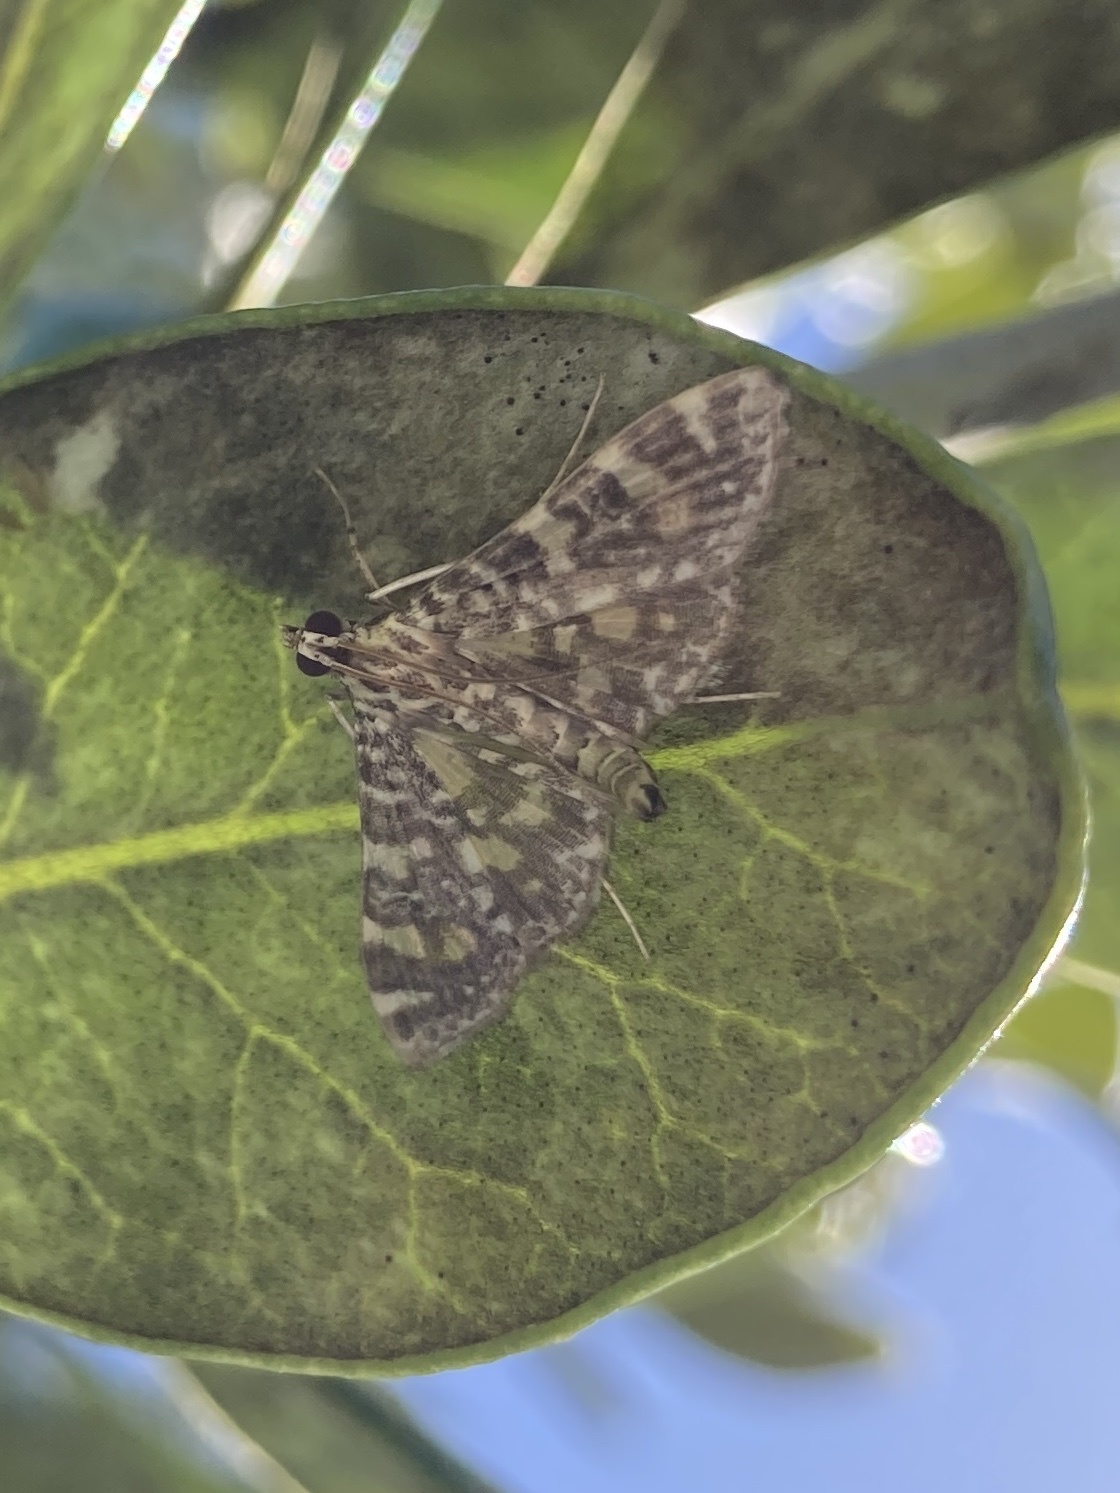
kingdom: Animalia
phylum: Arthropoda
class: Insecta
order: Lepidoptera
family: Crambidae
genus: Glyphodes
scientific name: Glyphodes onychinalis
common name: Swan plant moth
